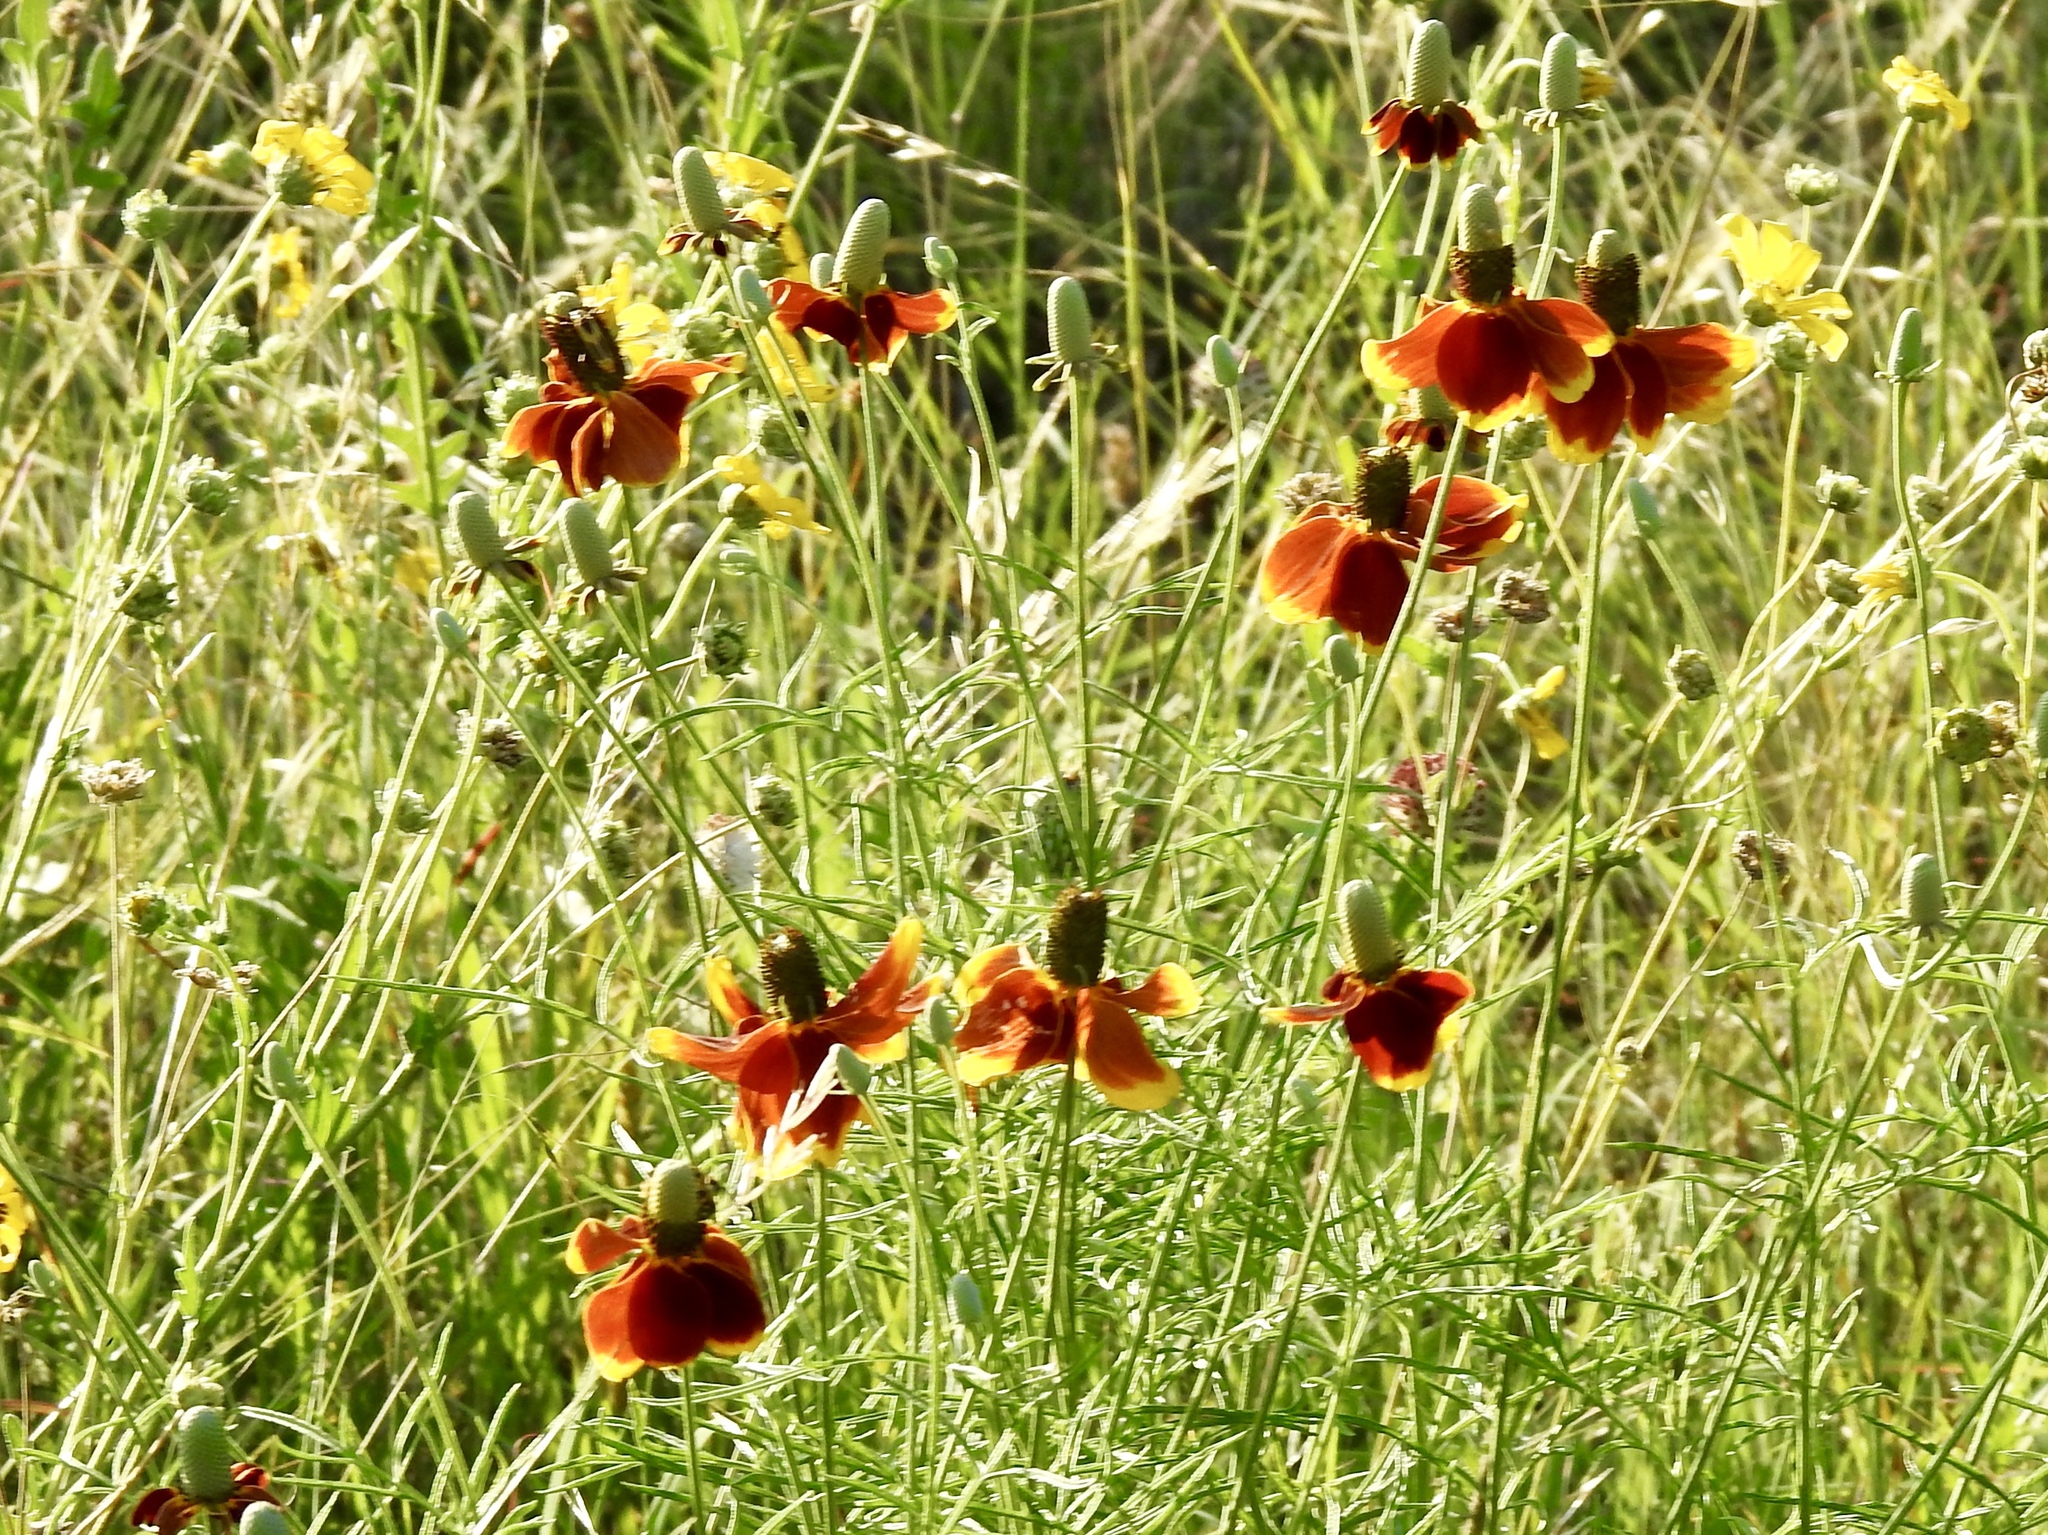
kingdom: Plantae
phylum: Tracheophyta
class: Magnoliopsida
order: Asterales
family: Asteraceae
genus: Ratibida
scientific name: Ratibida columnifera
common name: Prairie coneflower
